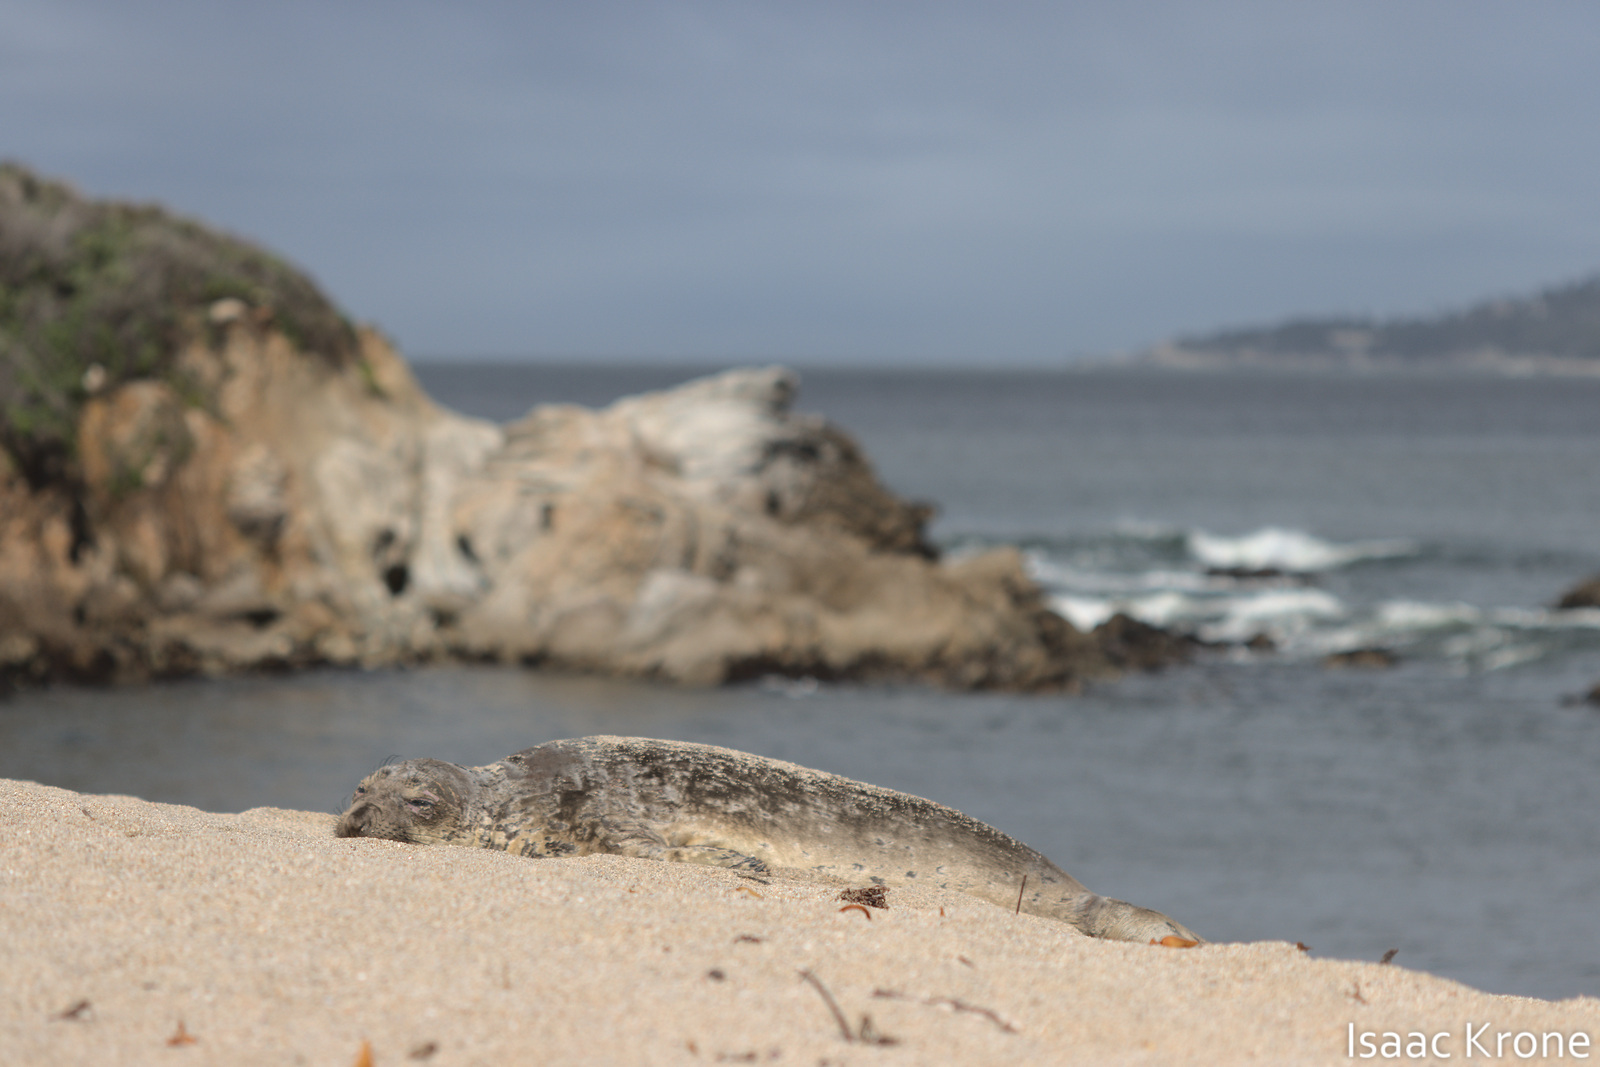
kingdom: Animalia
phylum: Chordata
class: Mammalia
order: Carnivora
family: Phocidae
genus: Mirounga
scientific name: Mirounga angustirostris
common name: Northern elephant seal
